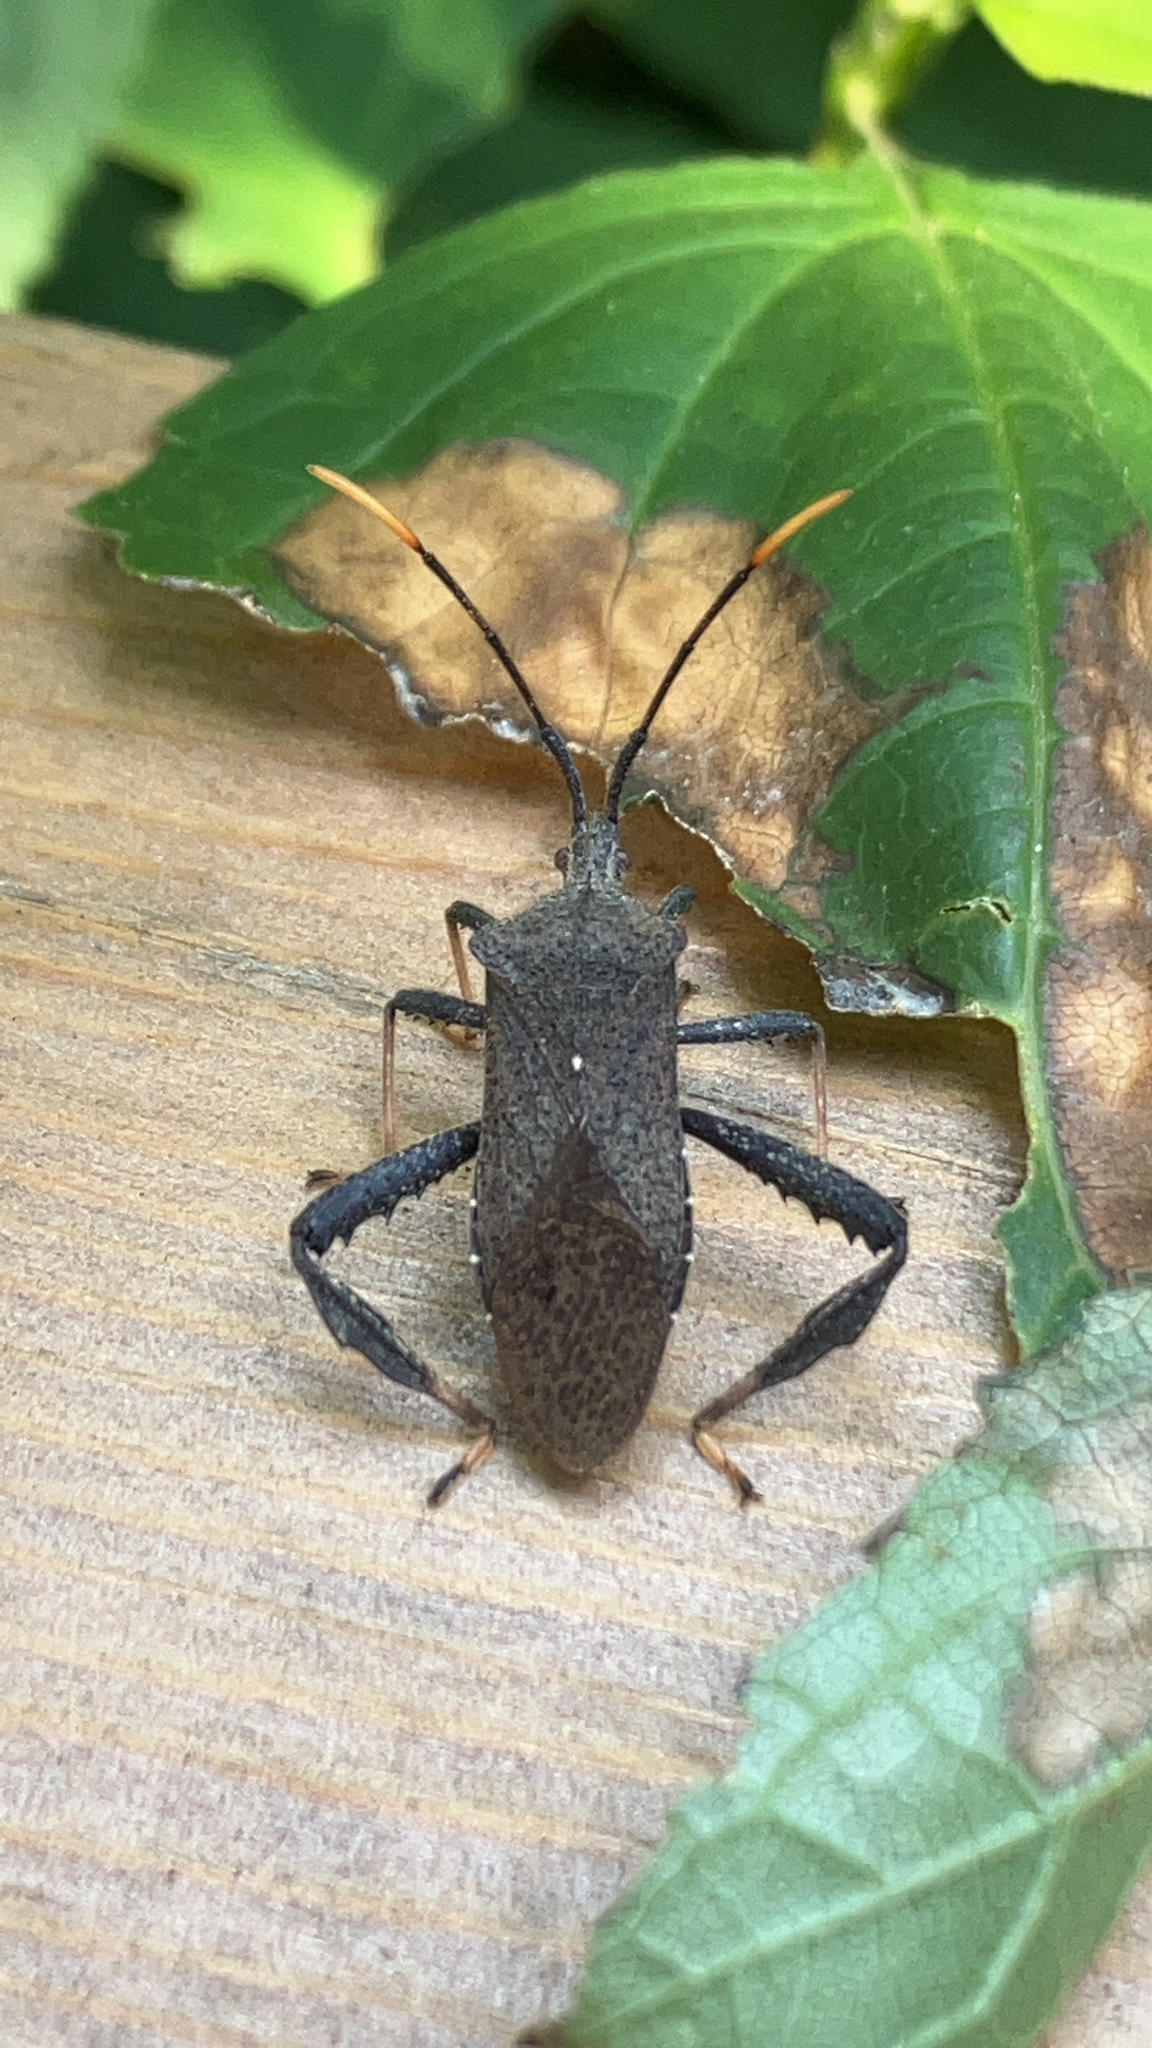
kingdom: Animalia
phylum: Arthropoda
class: Insecta
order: Hemiptera
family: Coreidae
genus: Acanthocephala
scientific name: Acanthocephala terminalis
